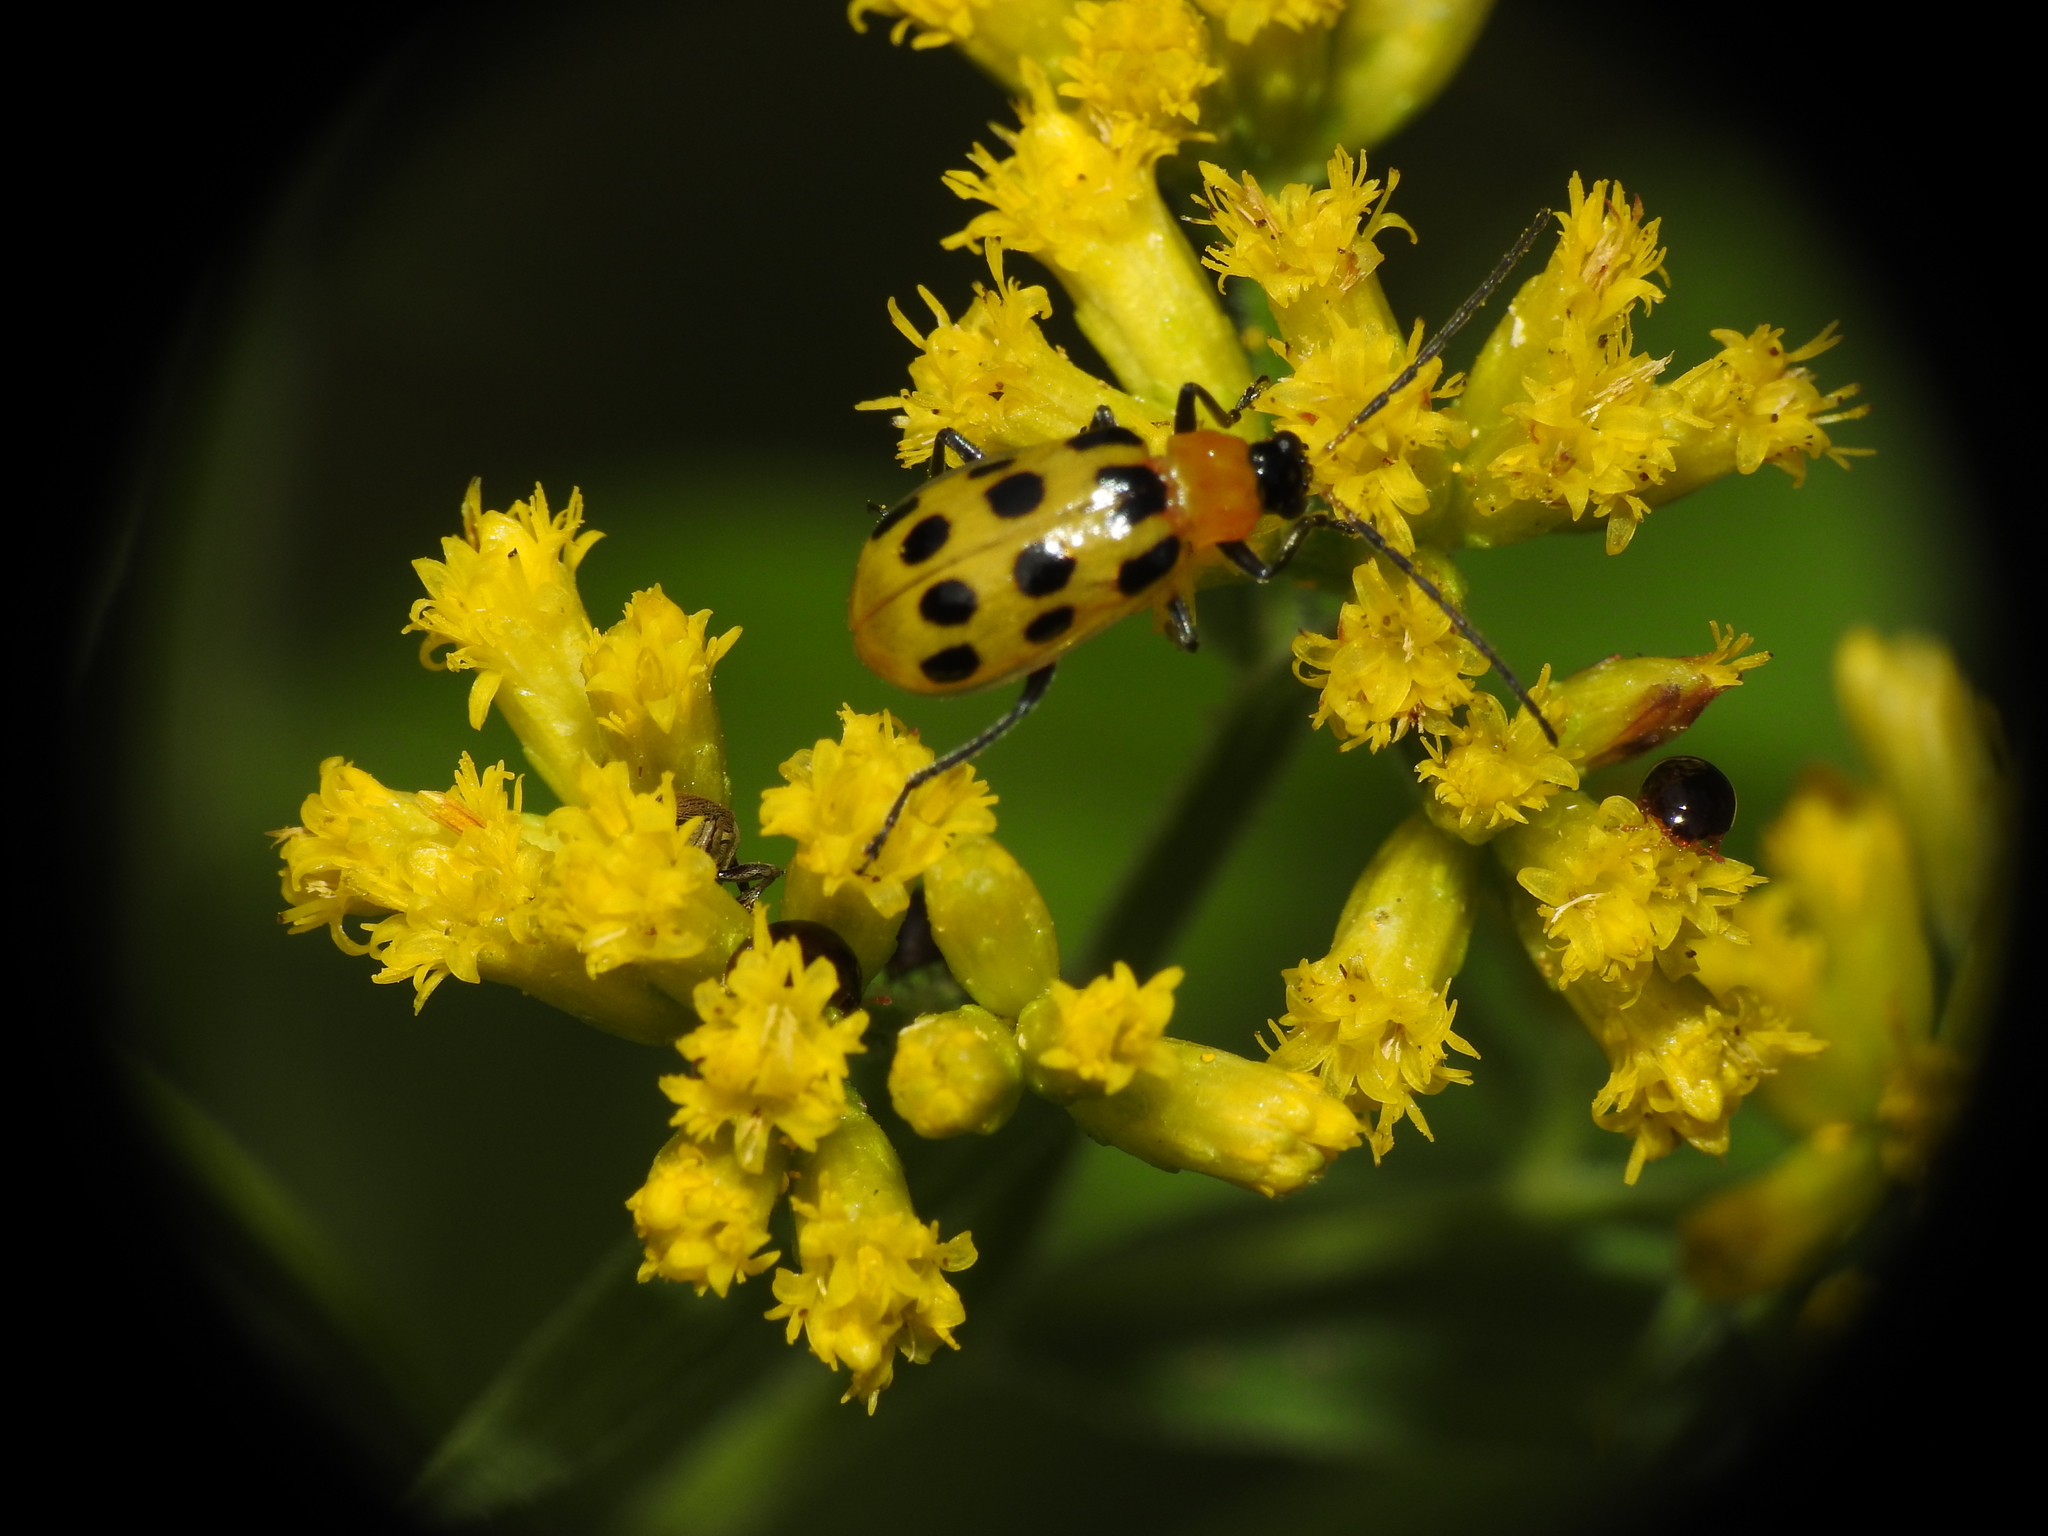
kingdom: Animalia
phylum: Arthropoda
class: Insecta
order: Coleoptera
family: Chrysomelidae
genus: Diabrotica
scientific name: Diabrotica undecimpunctata
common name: Spotted cucumber beetle
